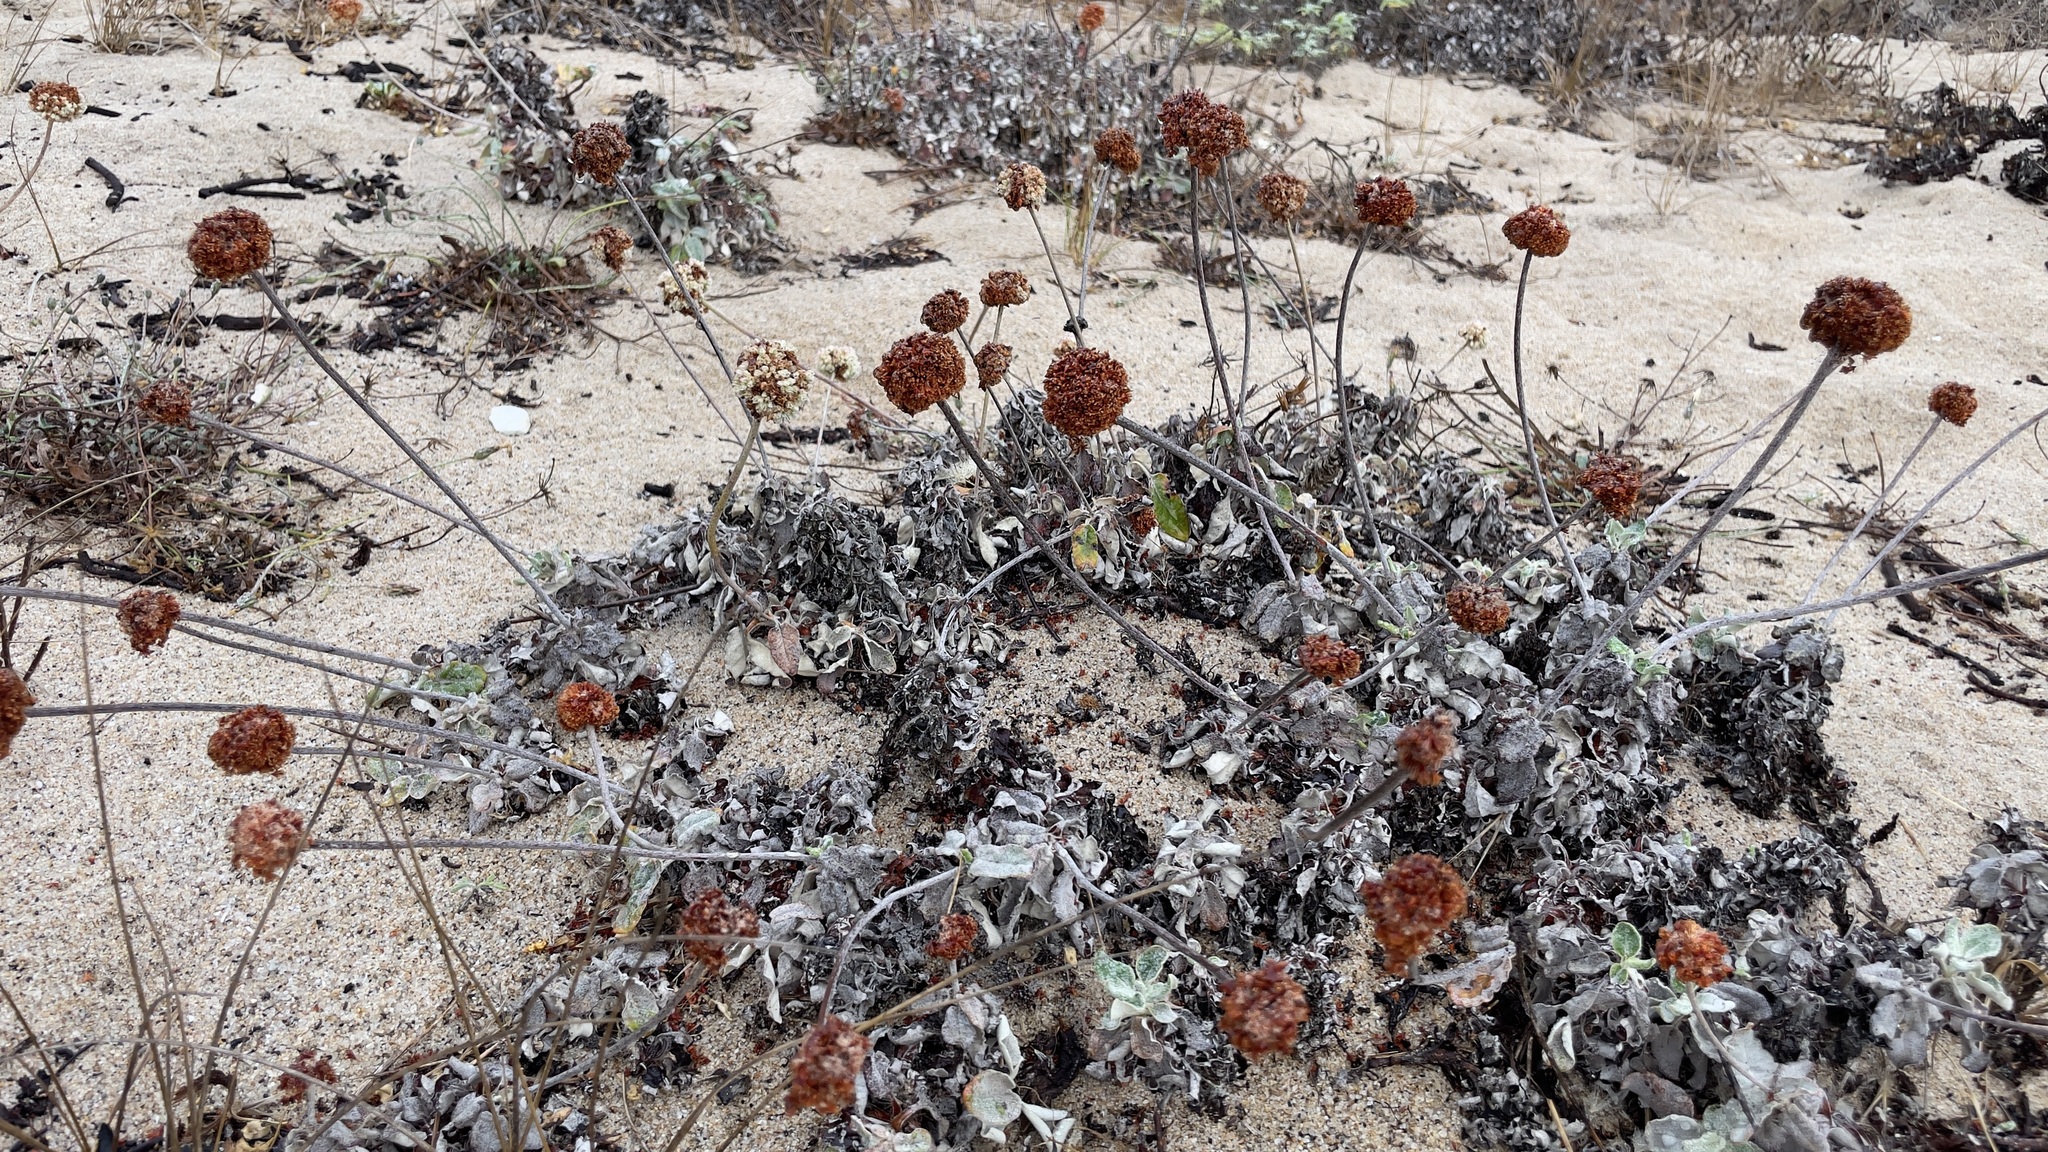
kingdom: Plantae
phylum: Tracheophyta
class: Magnoliopsida
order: Caryophyllales
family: Polygonaceae
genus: Eriogonum
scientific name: Eriogonum latifolium
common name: Seaside wild buckwheat
